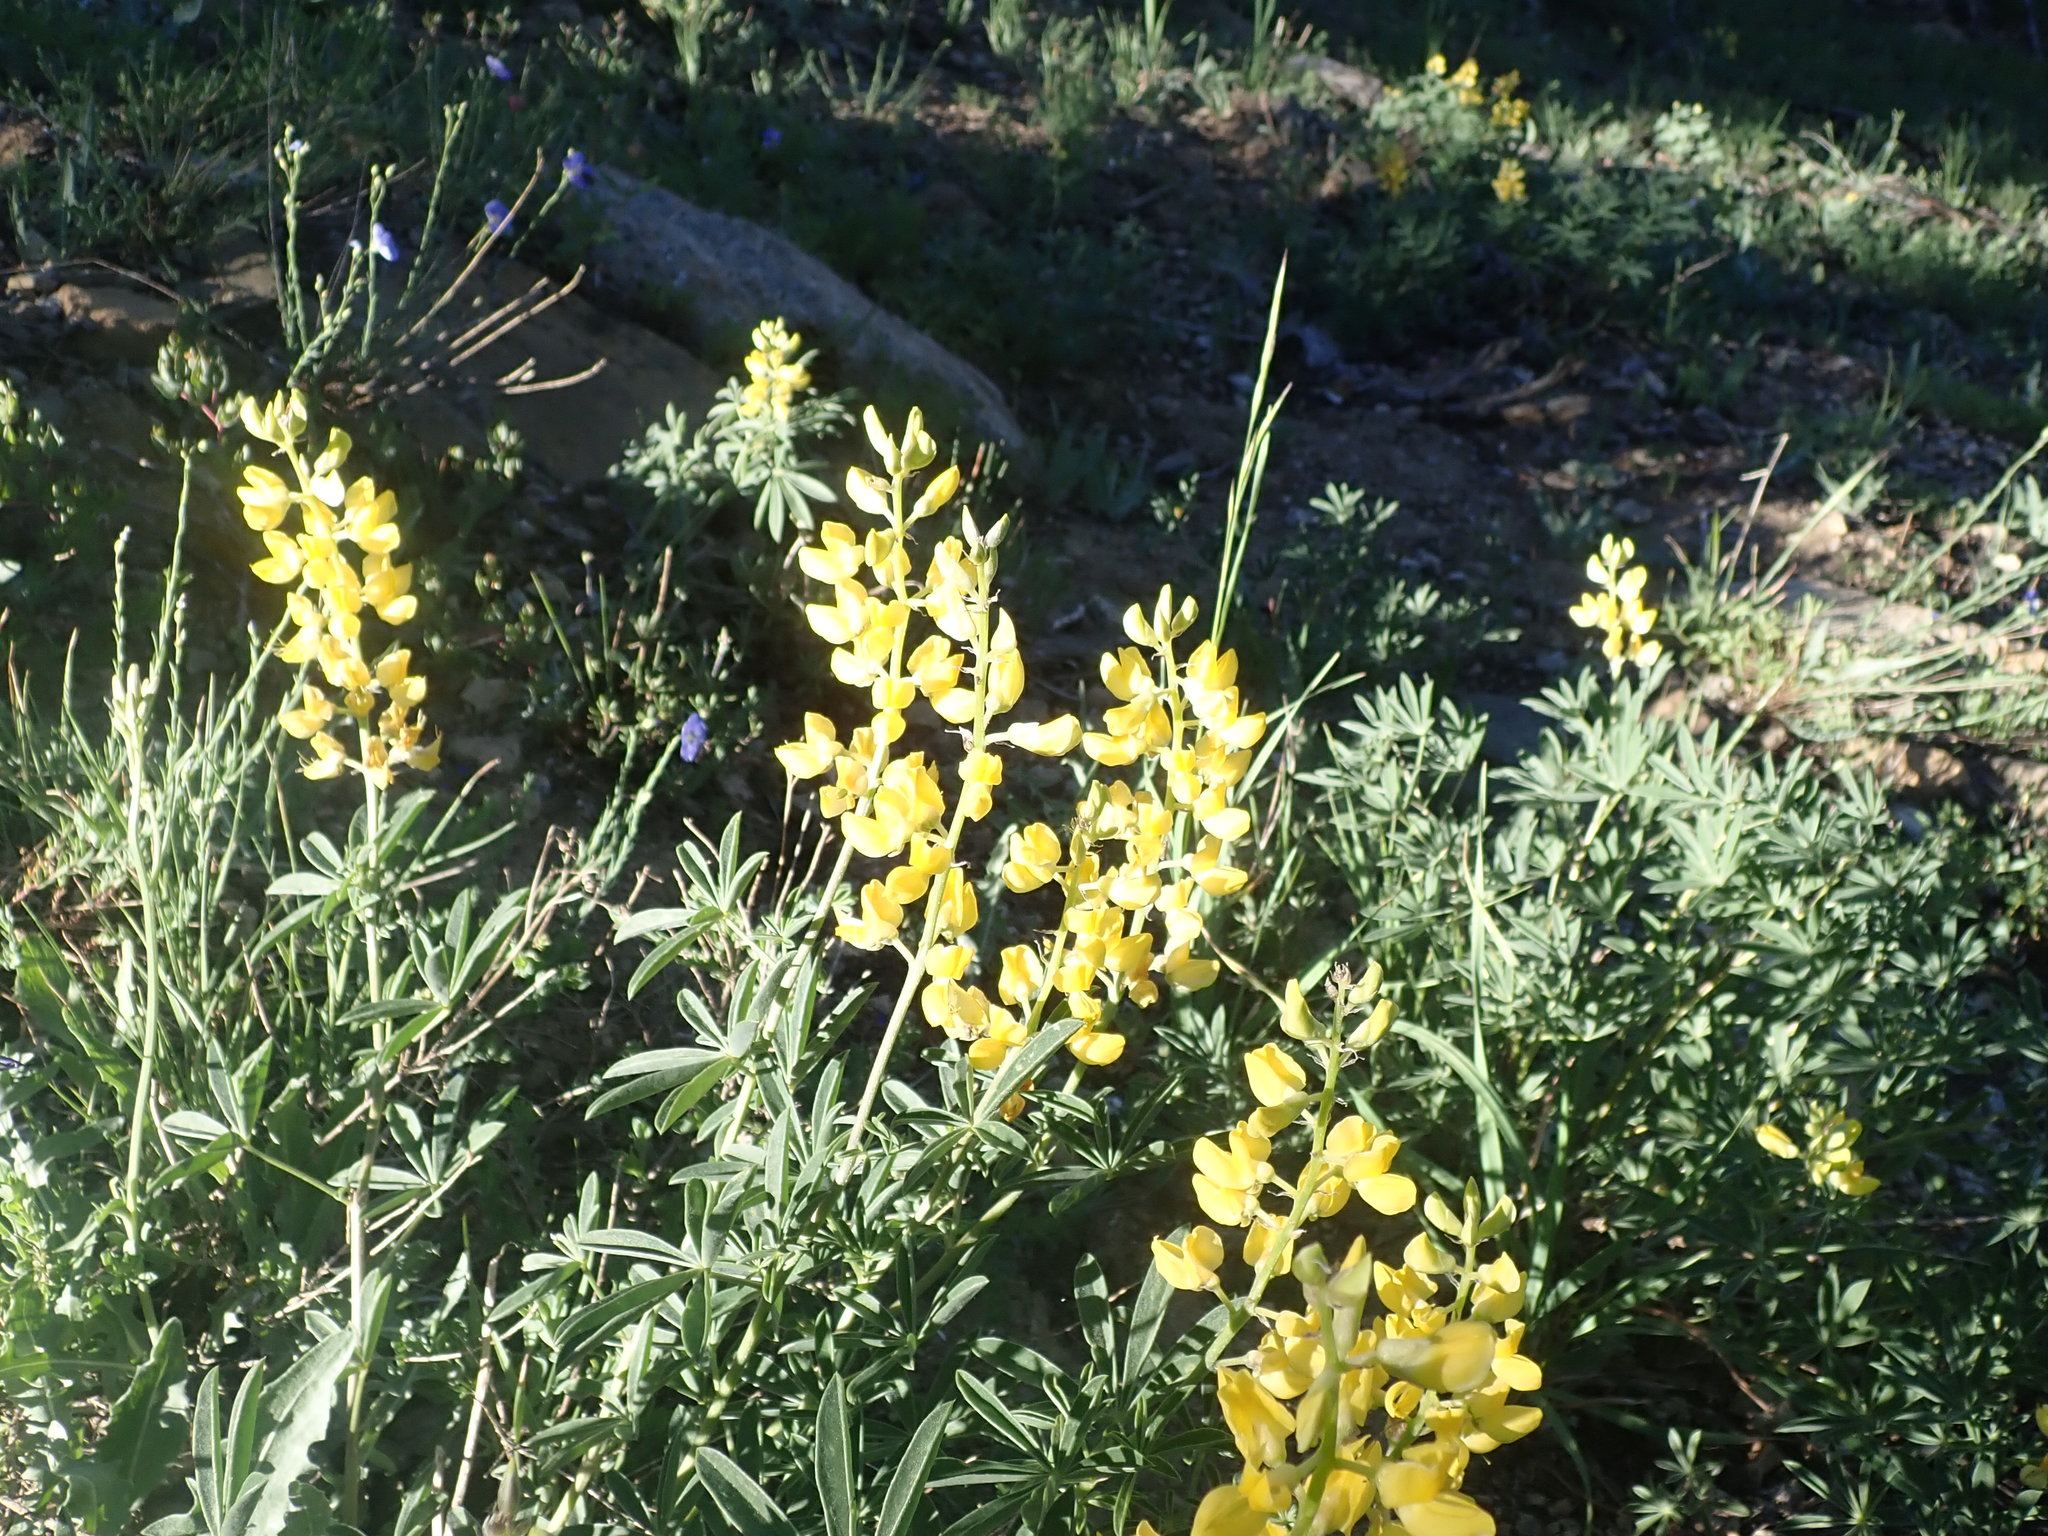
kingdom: Plantae
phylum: Tracheophyta
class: Magnoliopsida
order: Fabales
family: Fabaceae
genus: Lupinus
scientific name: Lupinus croceus
